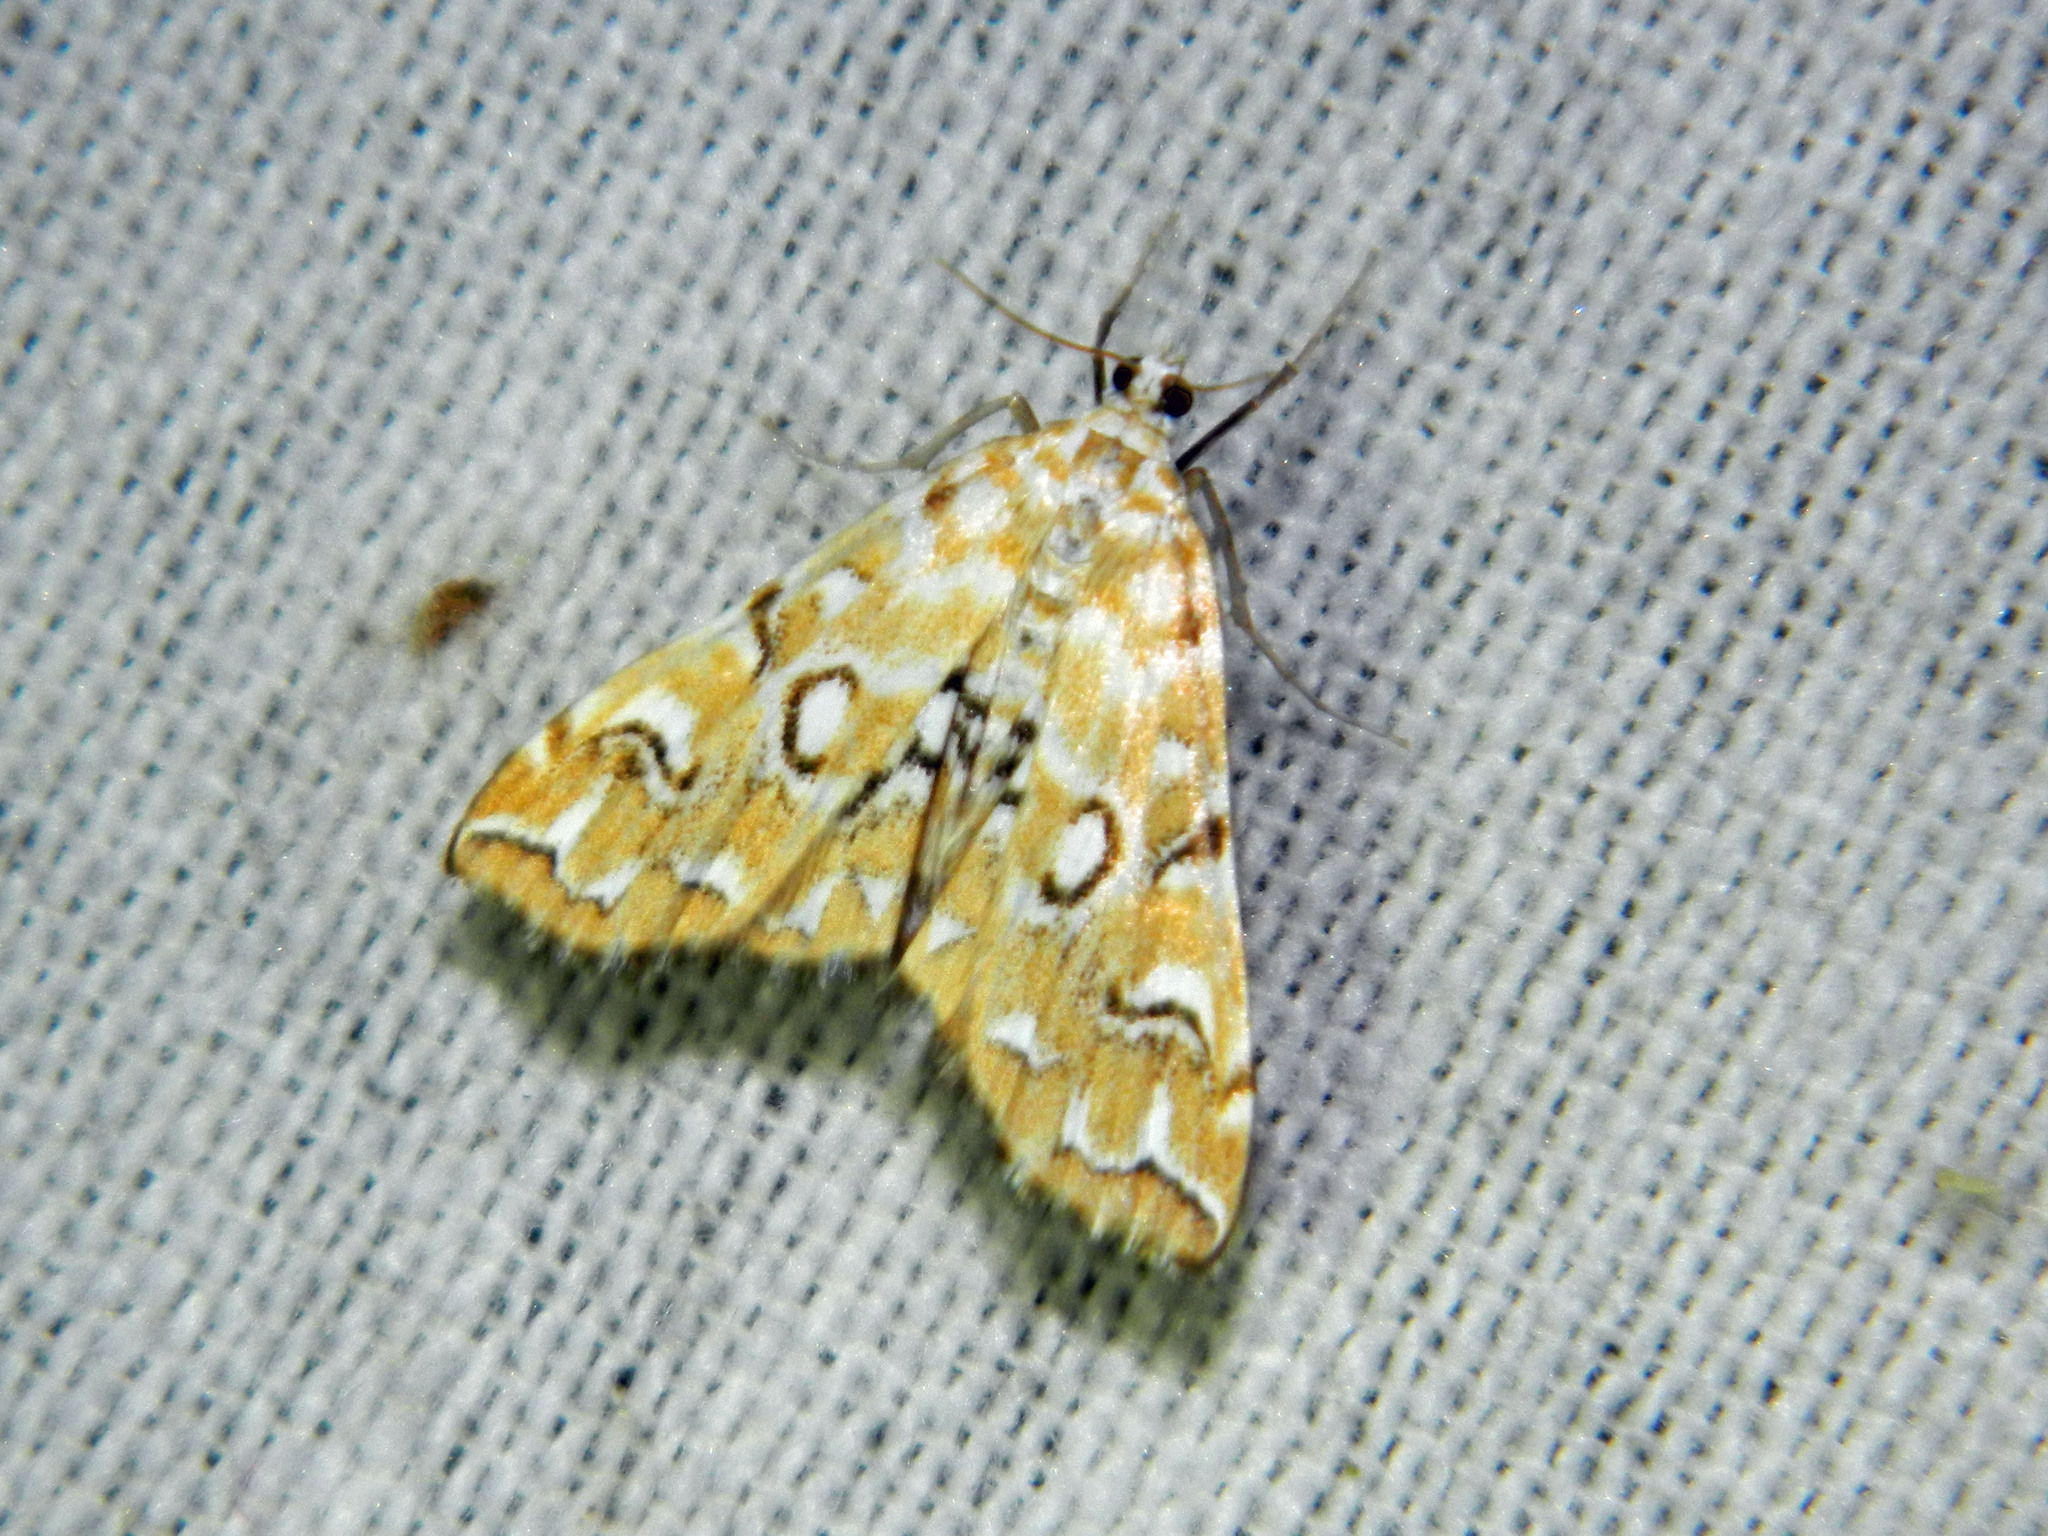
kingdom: Animalia
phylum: Arthropoda
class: Insecta
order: Lepidoptera
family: Crambidae
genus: Elophila
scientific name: Elophila icciusalis
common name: Pondside pyralid moth
